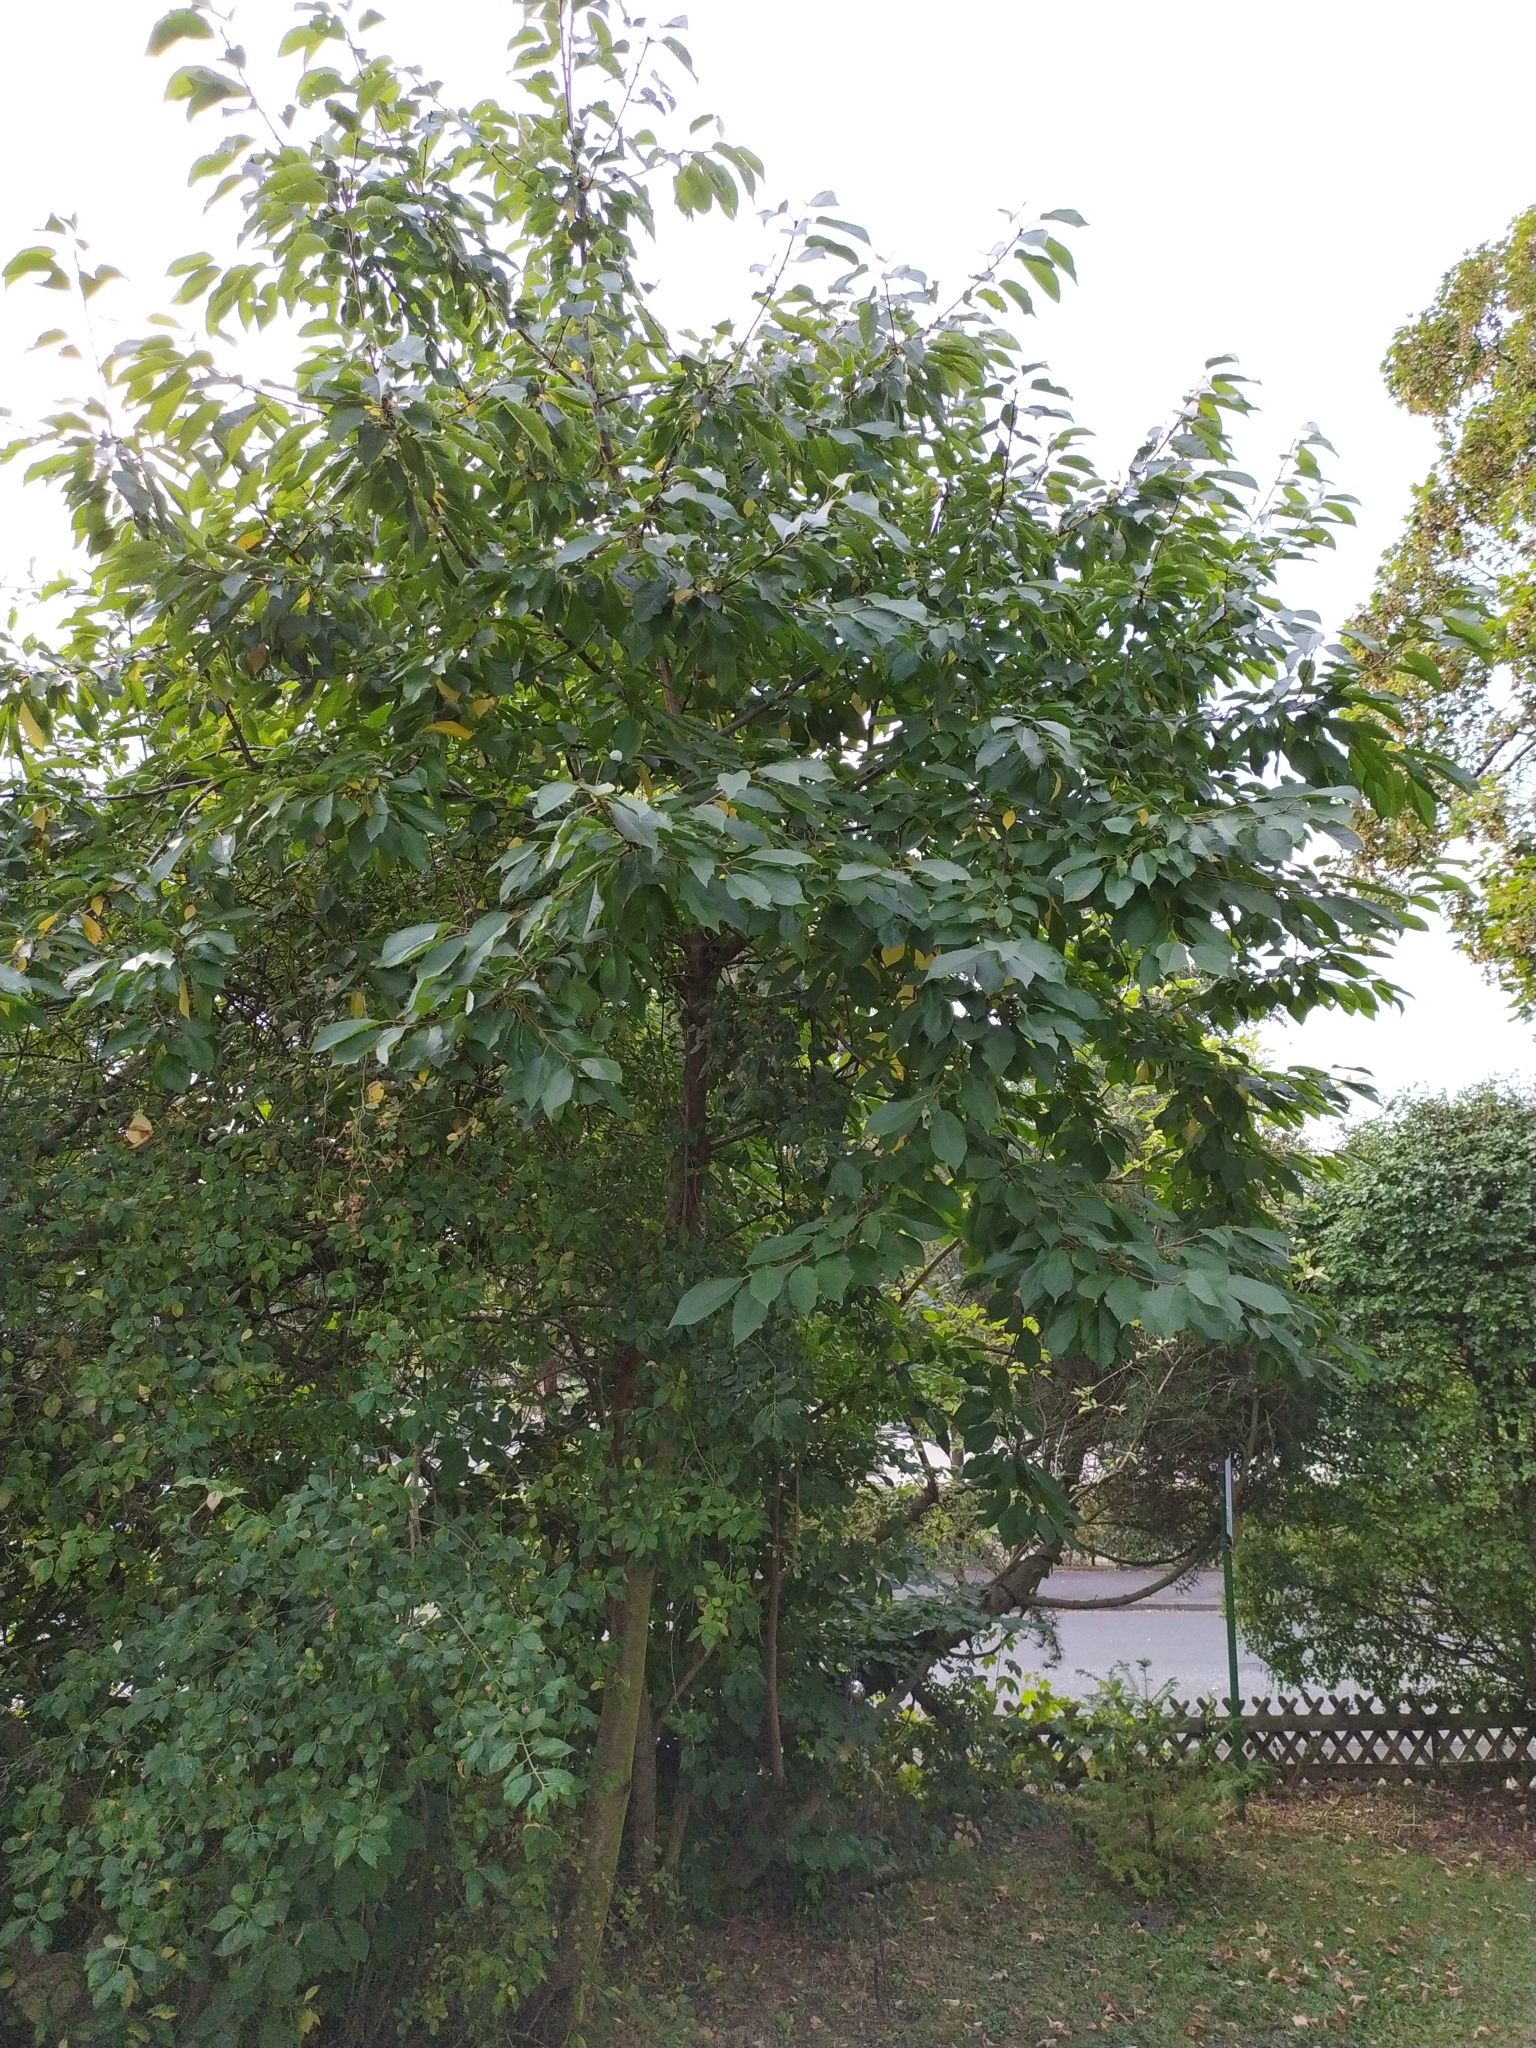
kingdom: Plantae
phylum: Tracheophyta
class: Magnoliopsida
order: Rosales
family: Rosaceae
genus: Prunus
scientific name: Prunus avium
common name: Sweet cherry
